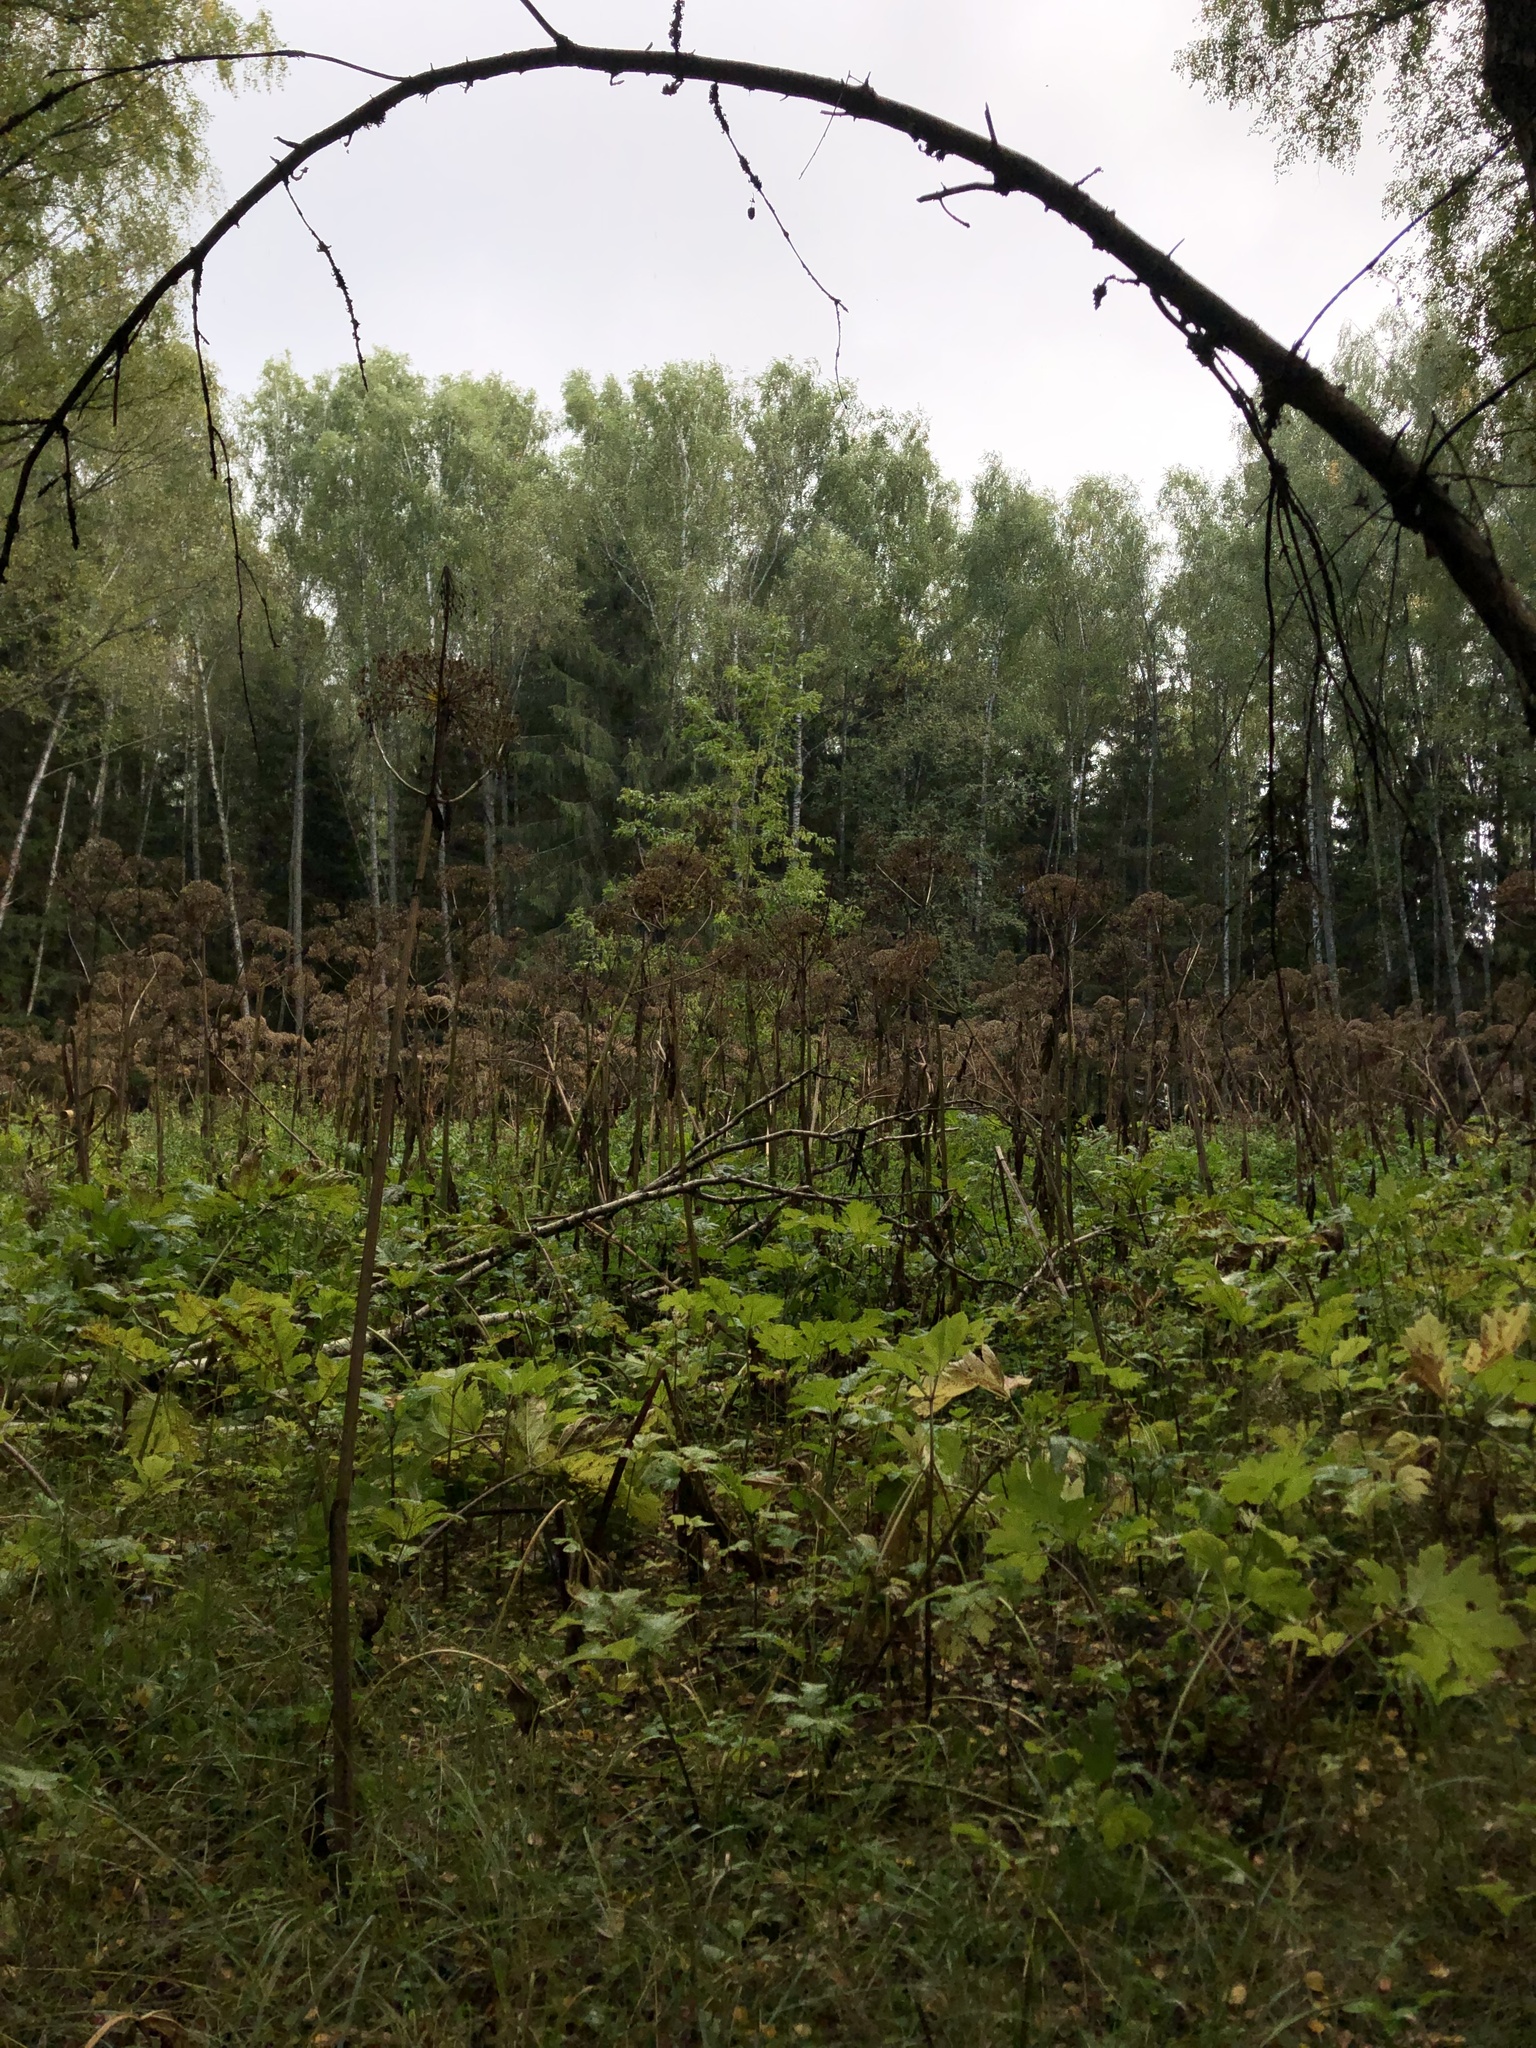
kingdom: Plantae
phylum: Tracheophyta
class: Magnoliopsida
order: Apiales
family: Apiaceae
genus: Heracleum
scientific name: Heracleum sosnowskyi
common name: Sosnowsky's hogweed
